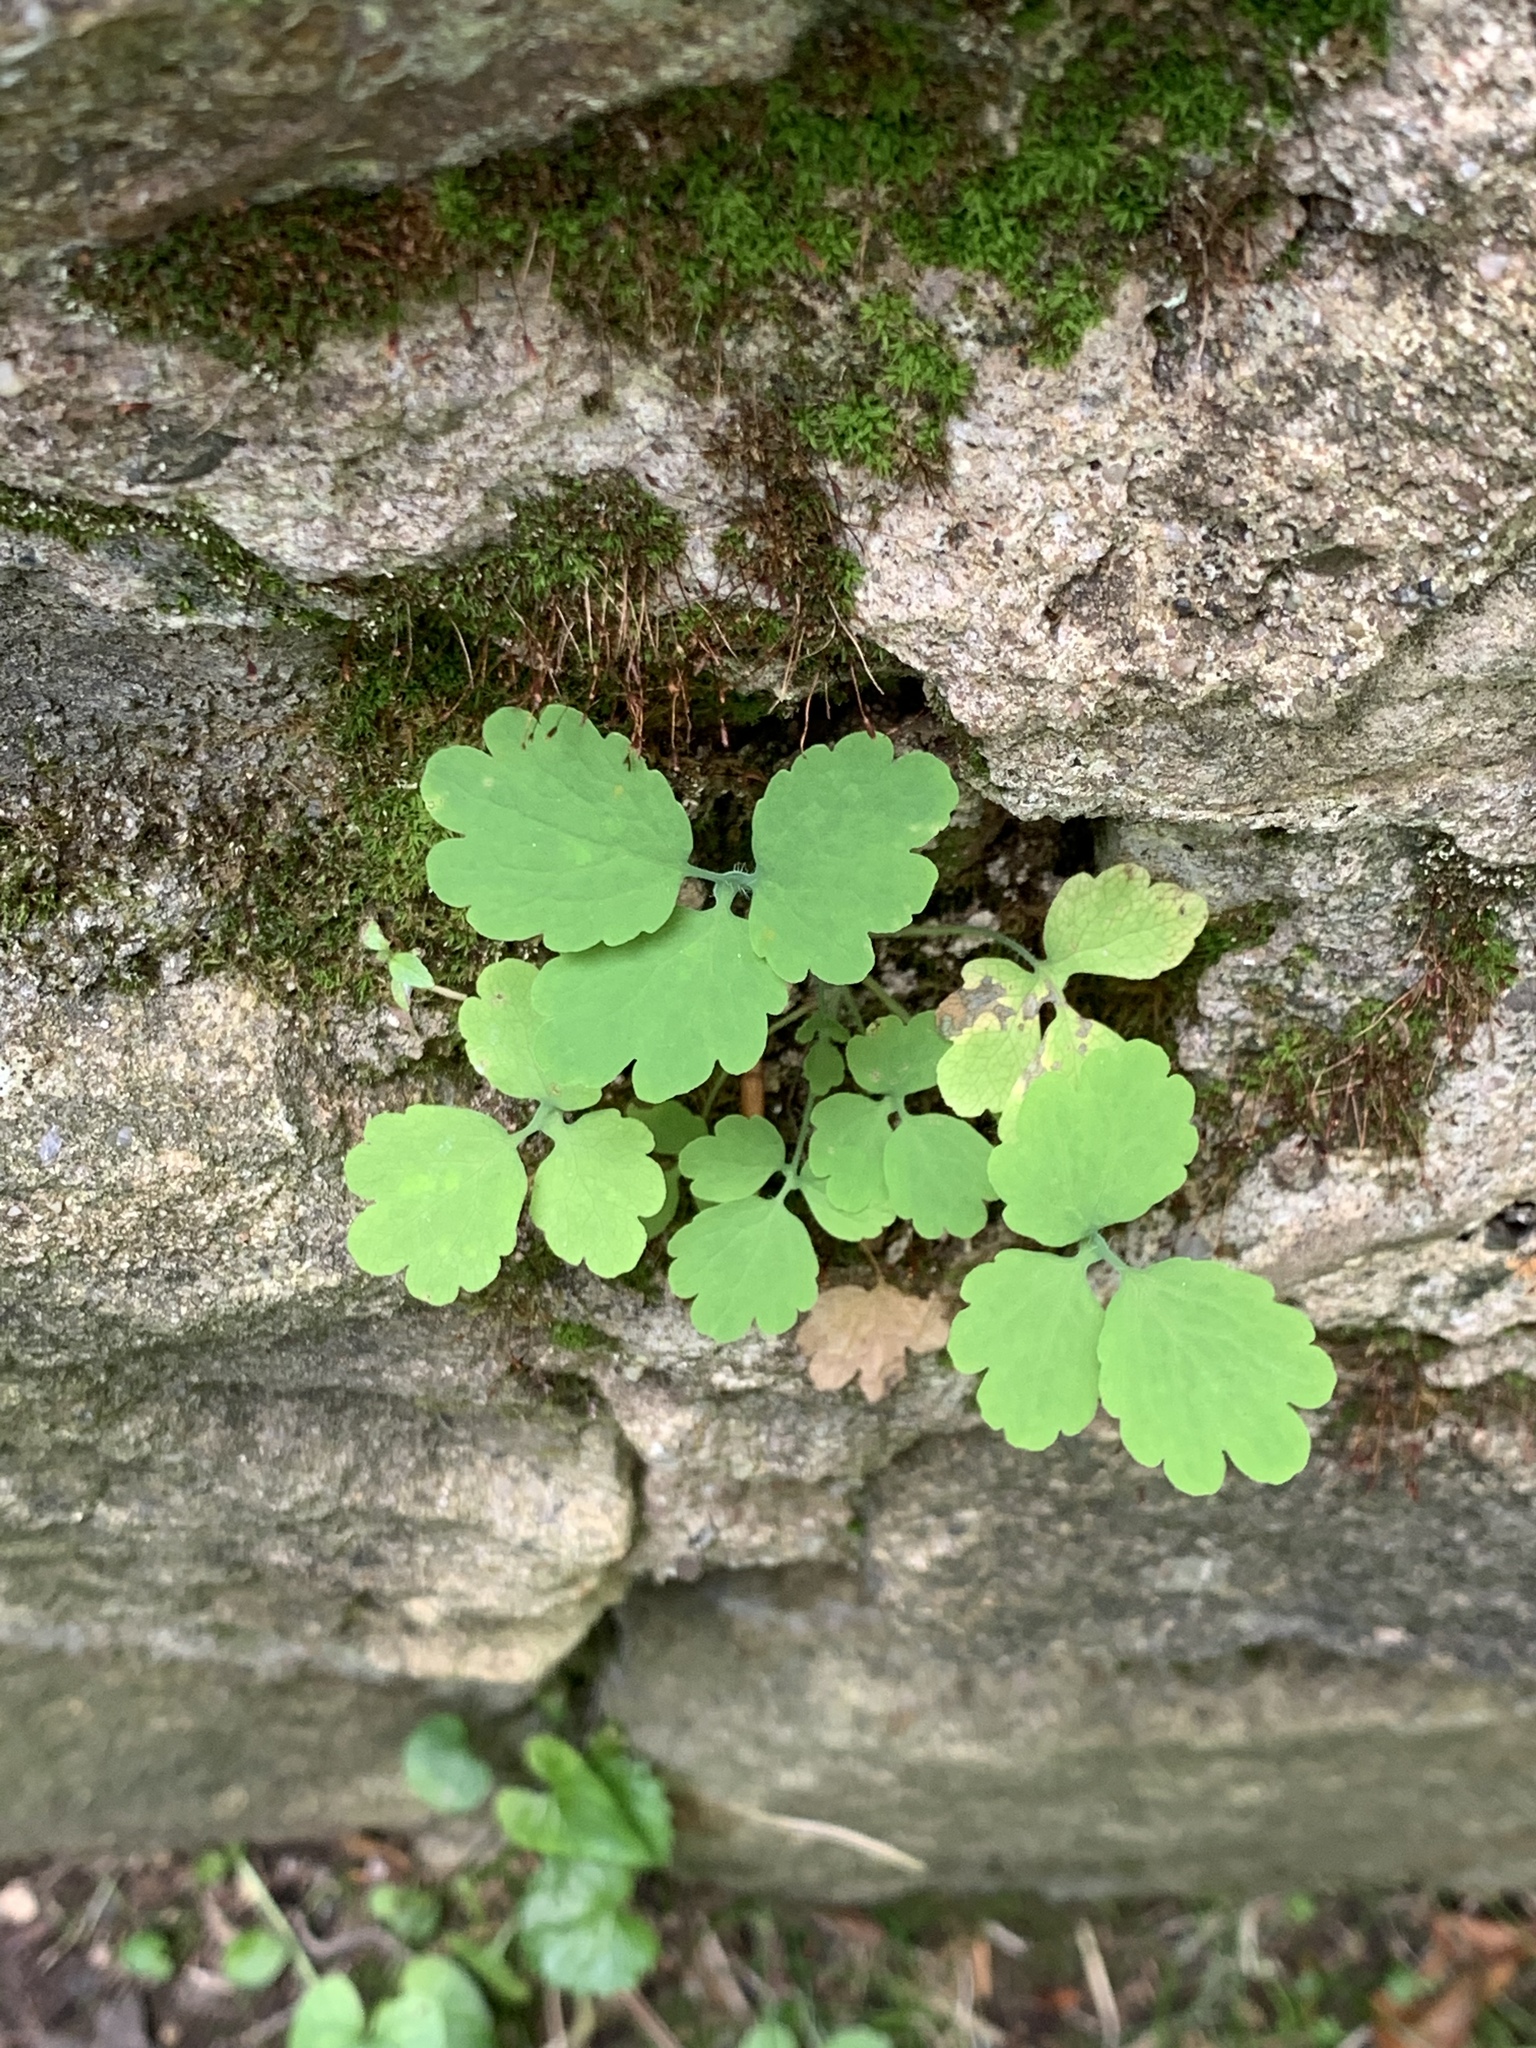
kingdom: Plantae
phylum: Tracheophyta
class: Magnoliopsida
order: Ranunculales
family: Papaveraceae
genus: Chelidonium
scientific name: Chelidonium majus
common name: Greater celandine
